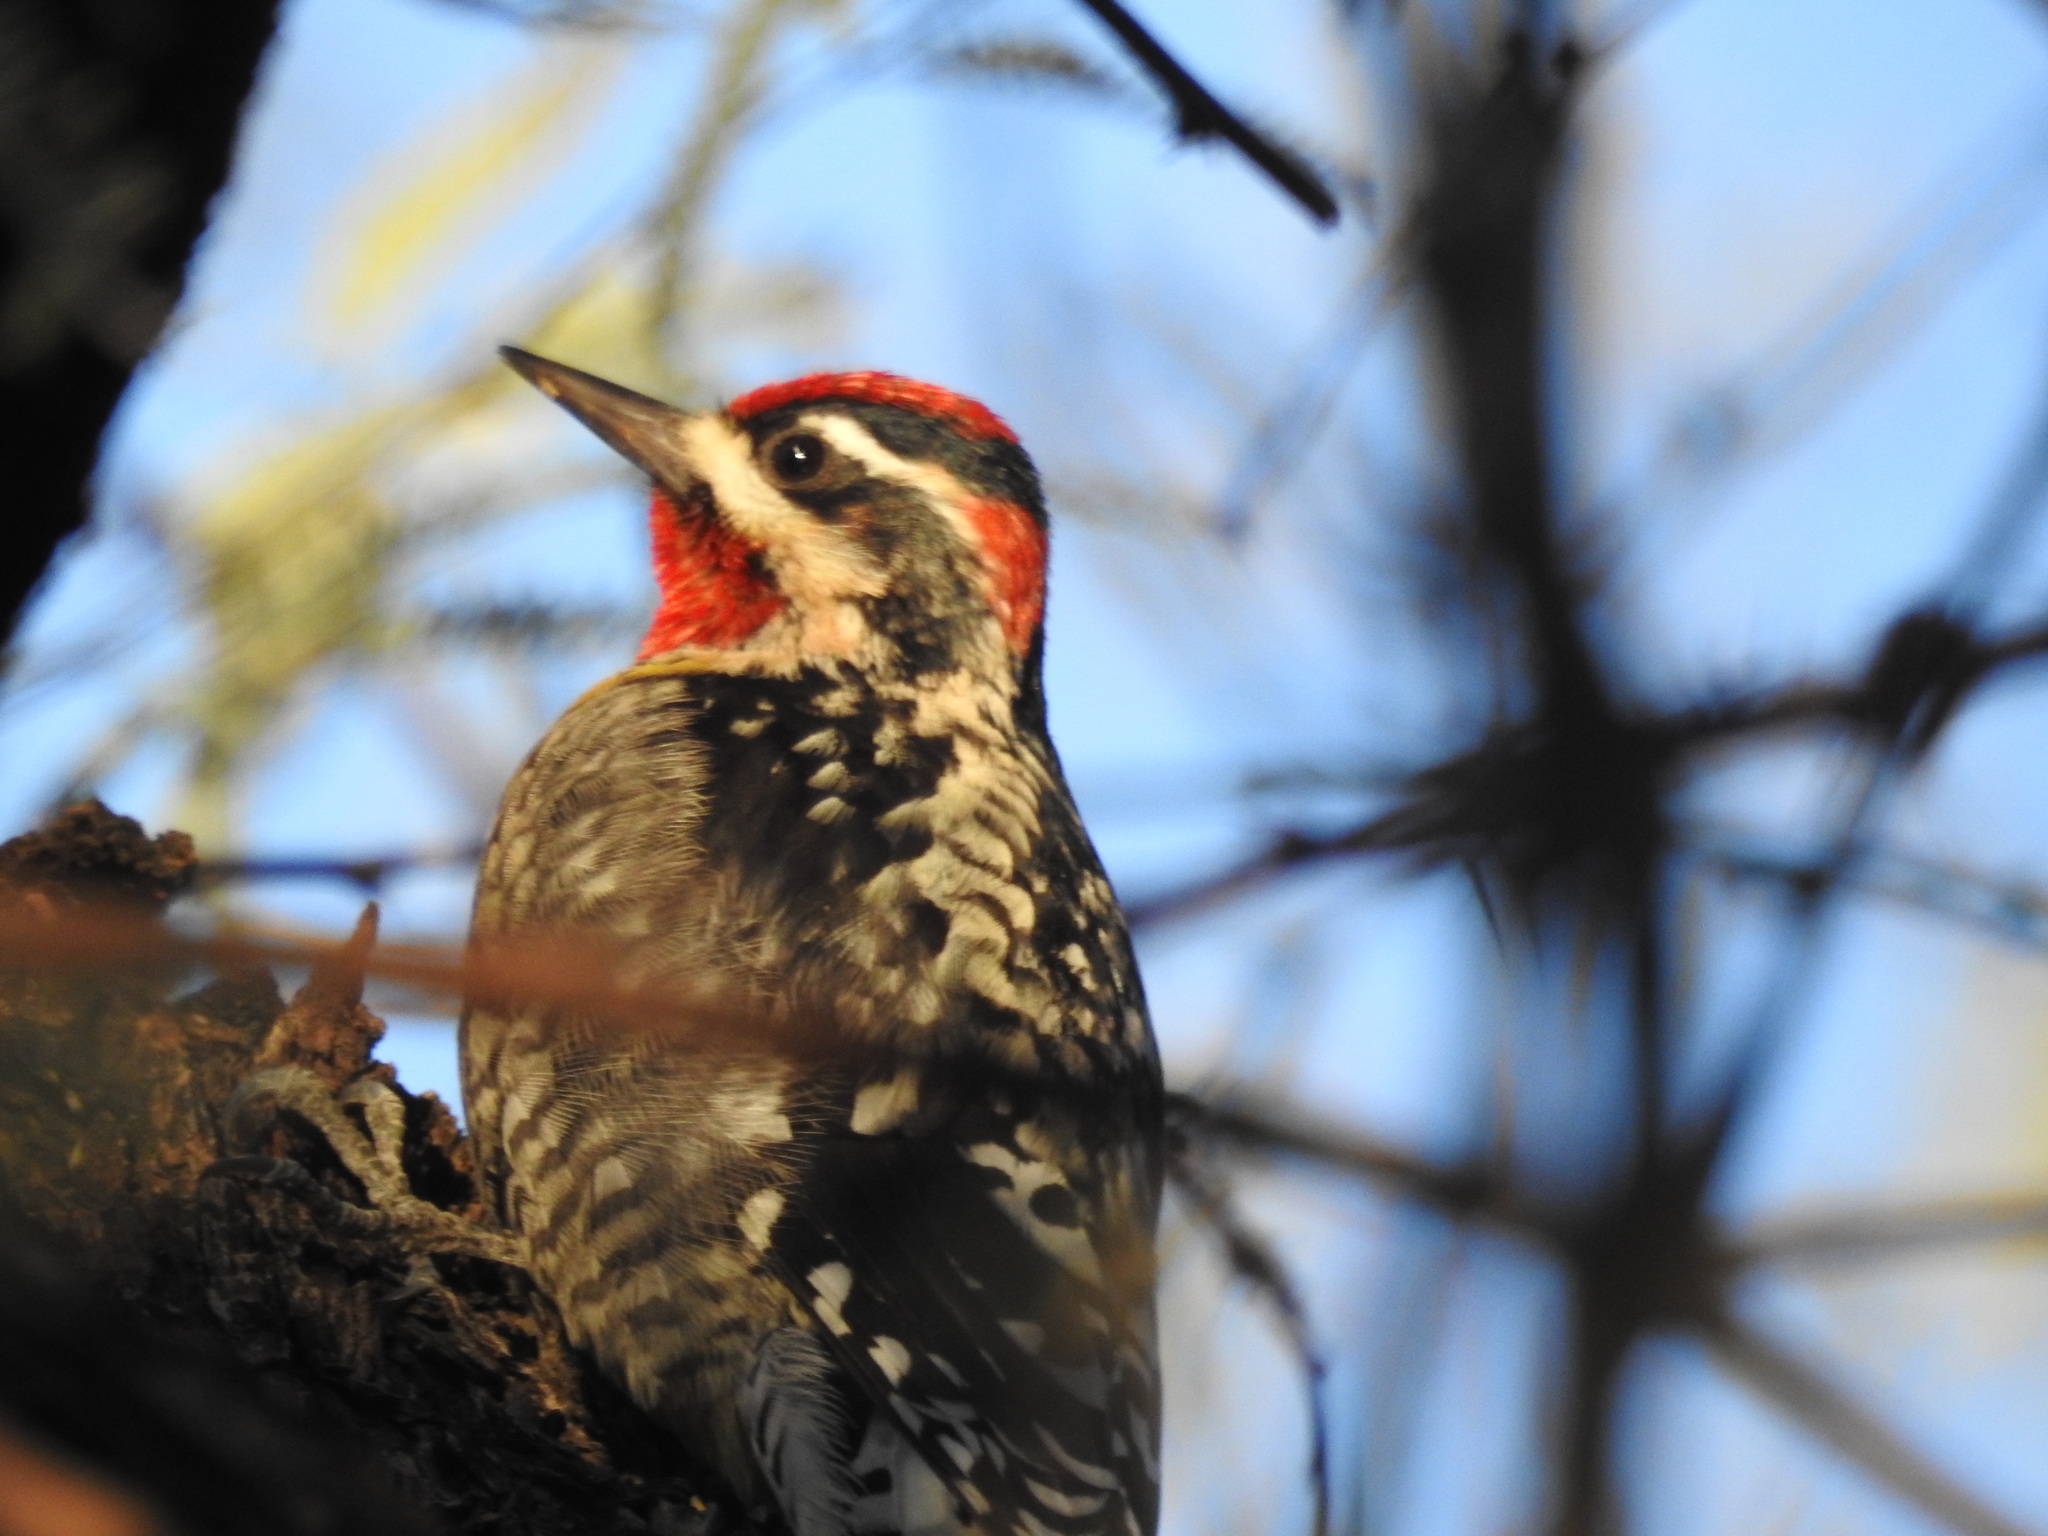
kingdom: Animalia
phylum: Chordata
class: Aves
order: Piciformes
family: Picidae
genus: Sphyrapicus
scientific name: Sphyrapicus nuchalis
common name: Red-naped sapsucker
